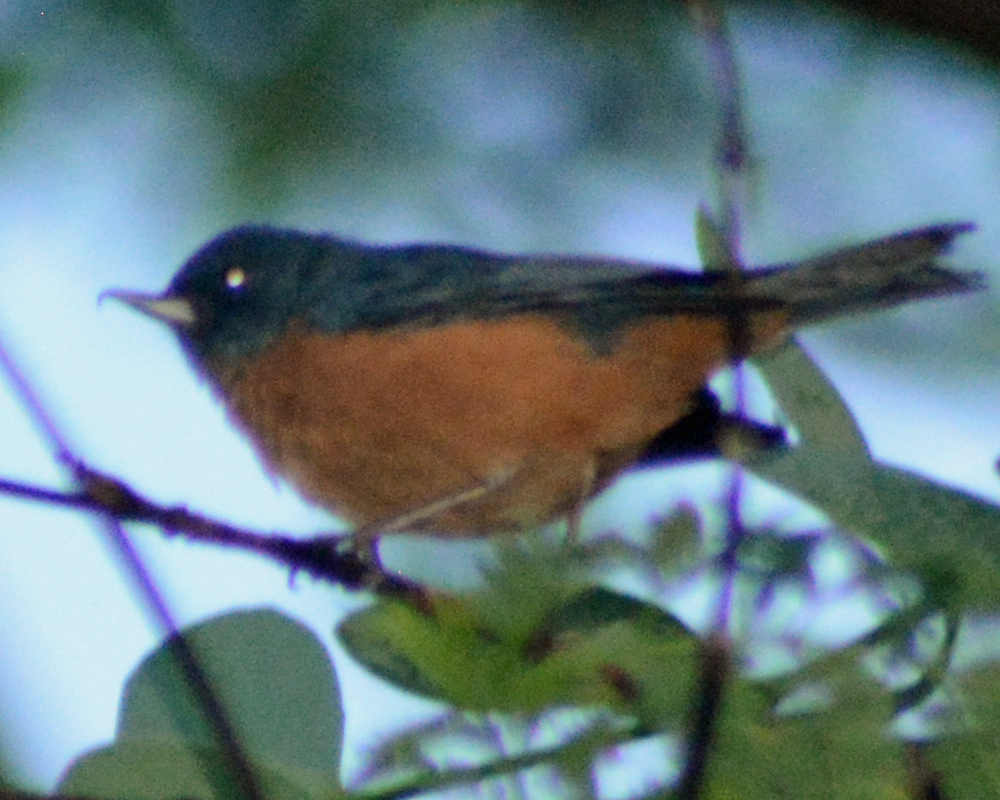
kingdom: Animalia
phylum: Chordata
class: Aves
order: Passeriformes
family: Thraupidae
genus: Diglossa
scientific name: Diglossa baritula
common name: Cinnamon-bellied flowerpiercer
